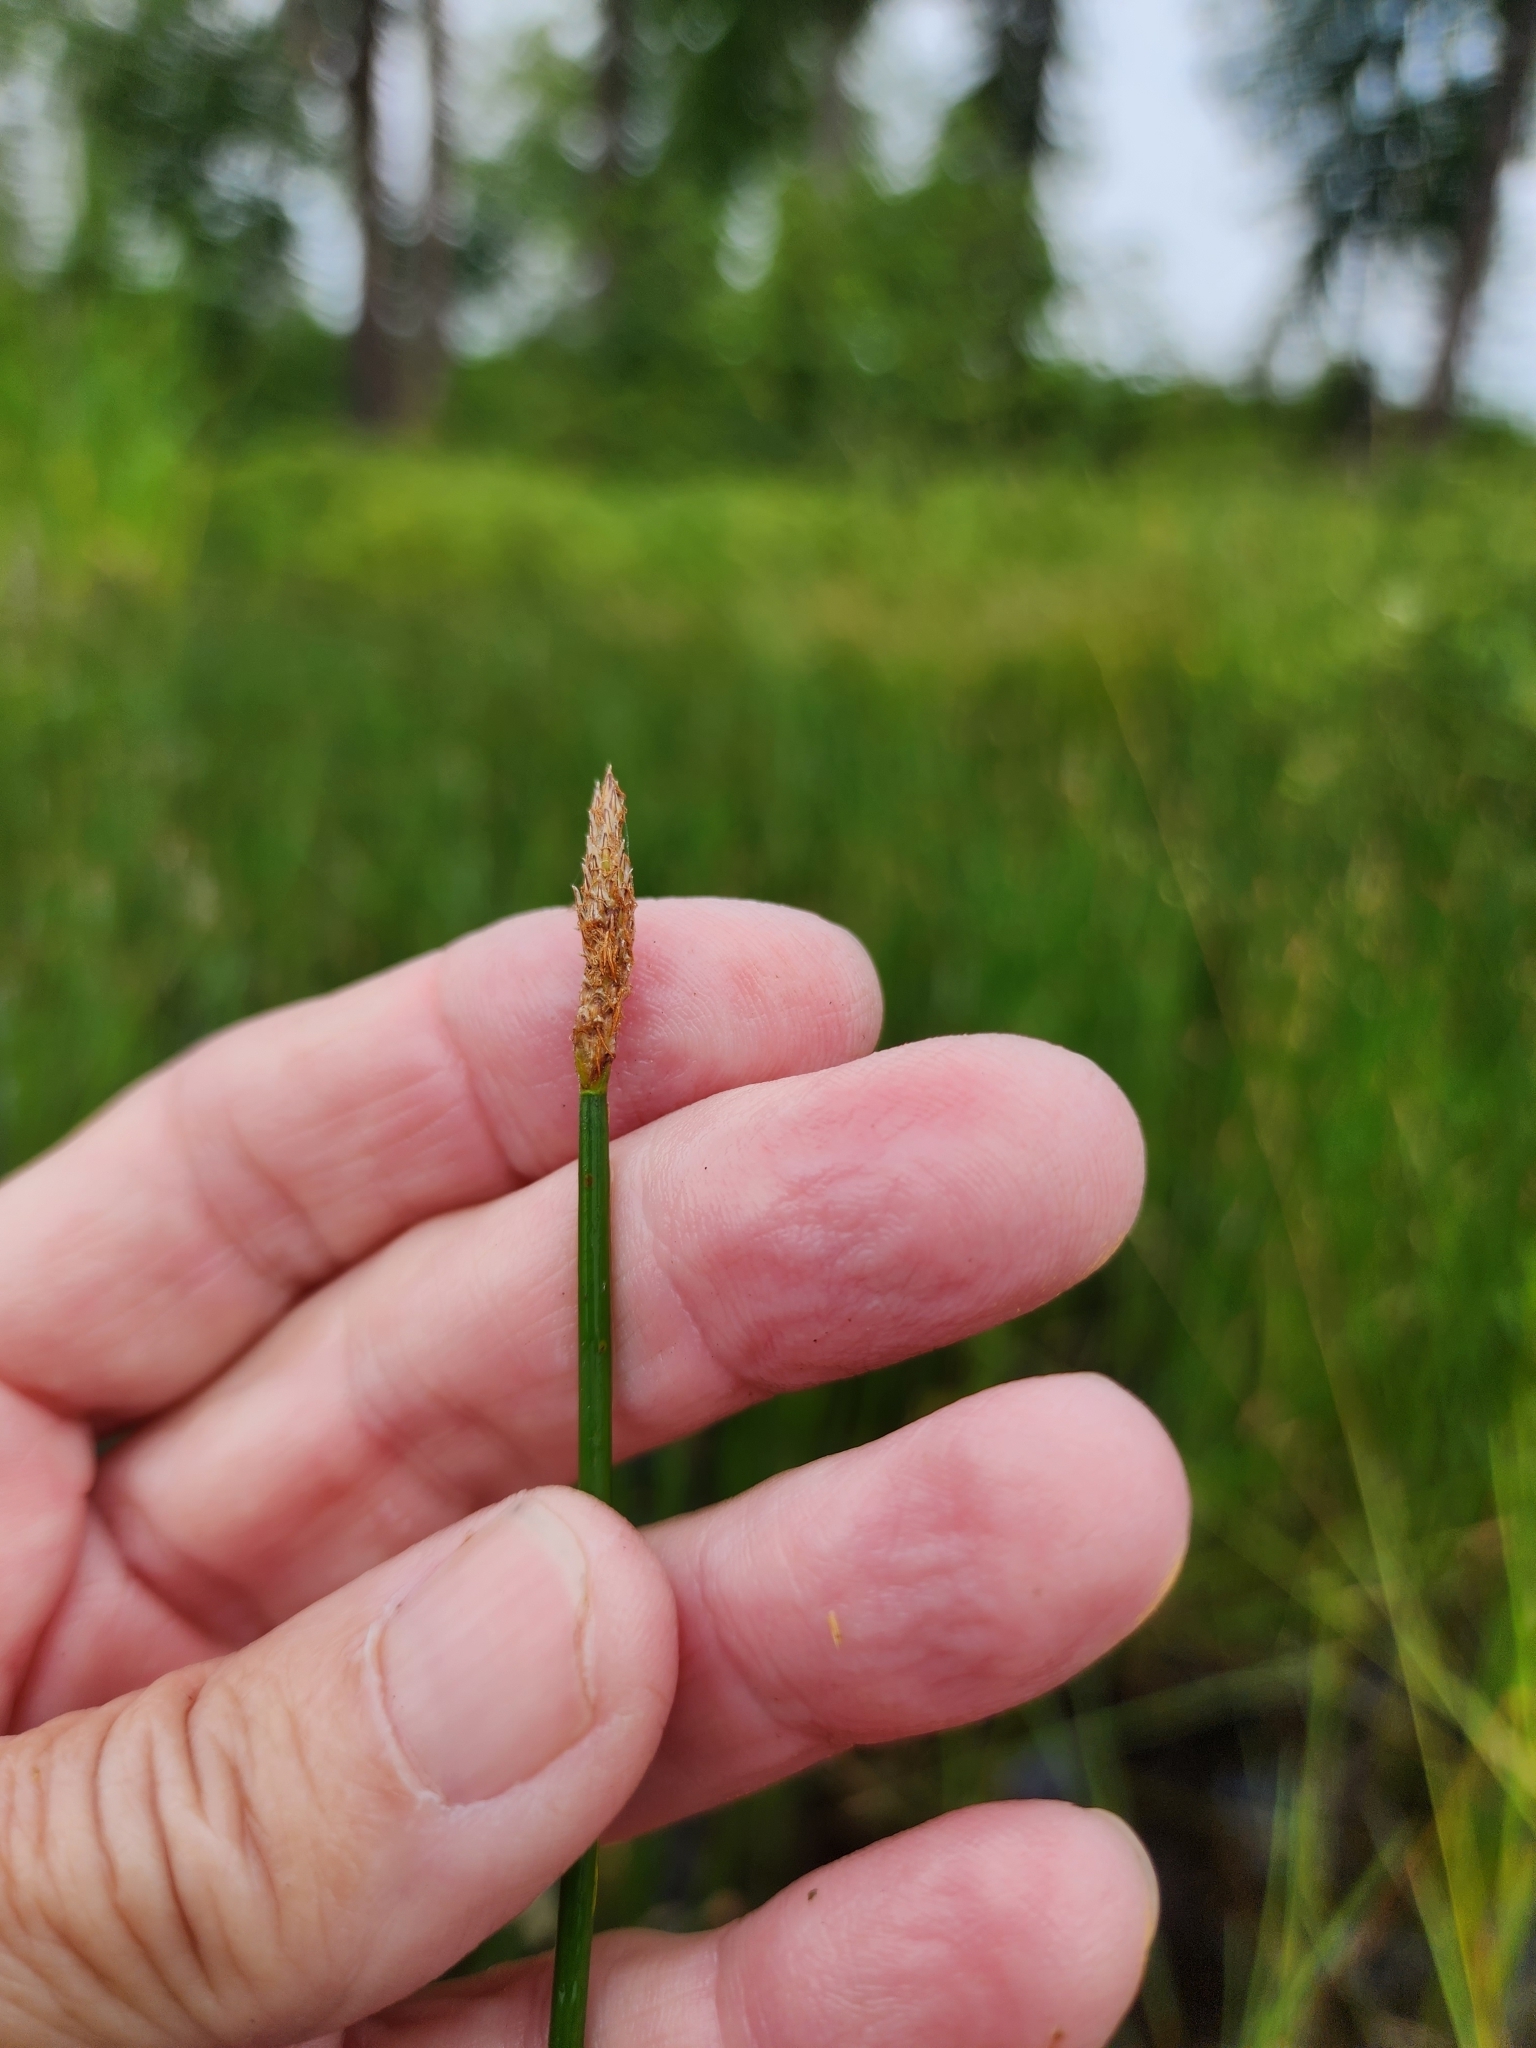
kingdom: Plantae
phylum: Tracheophyta
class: Liliopsida
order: Poales
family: Cyperaceae
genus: Eleocharis
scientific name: Eleocharis palustris
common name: Common spike-rush
